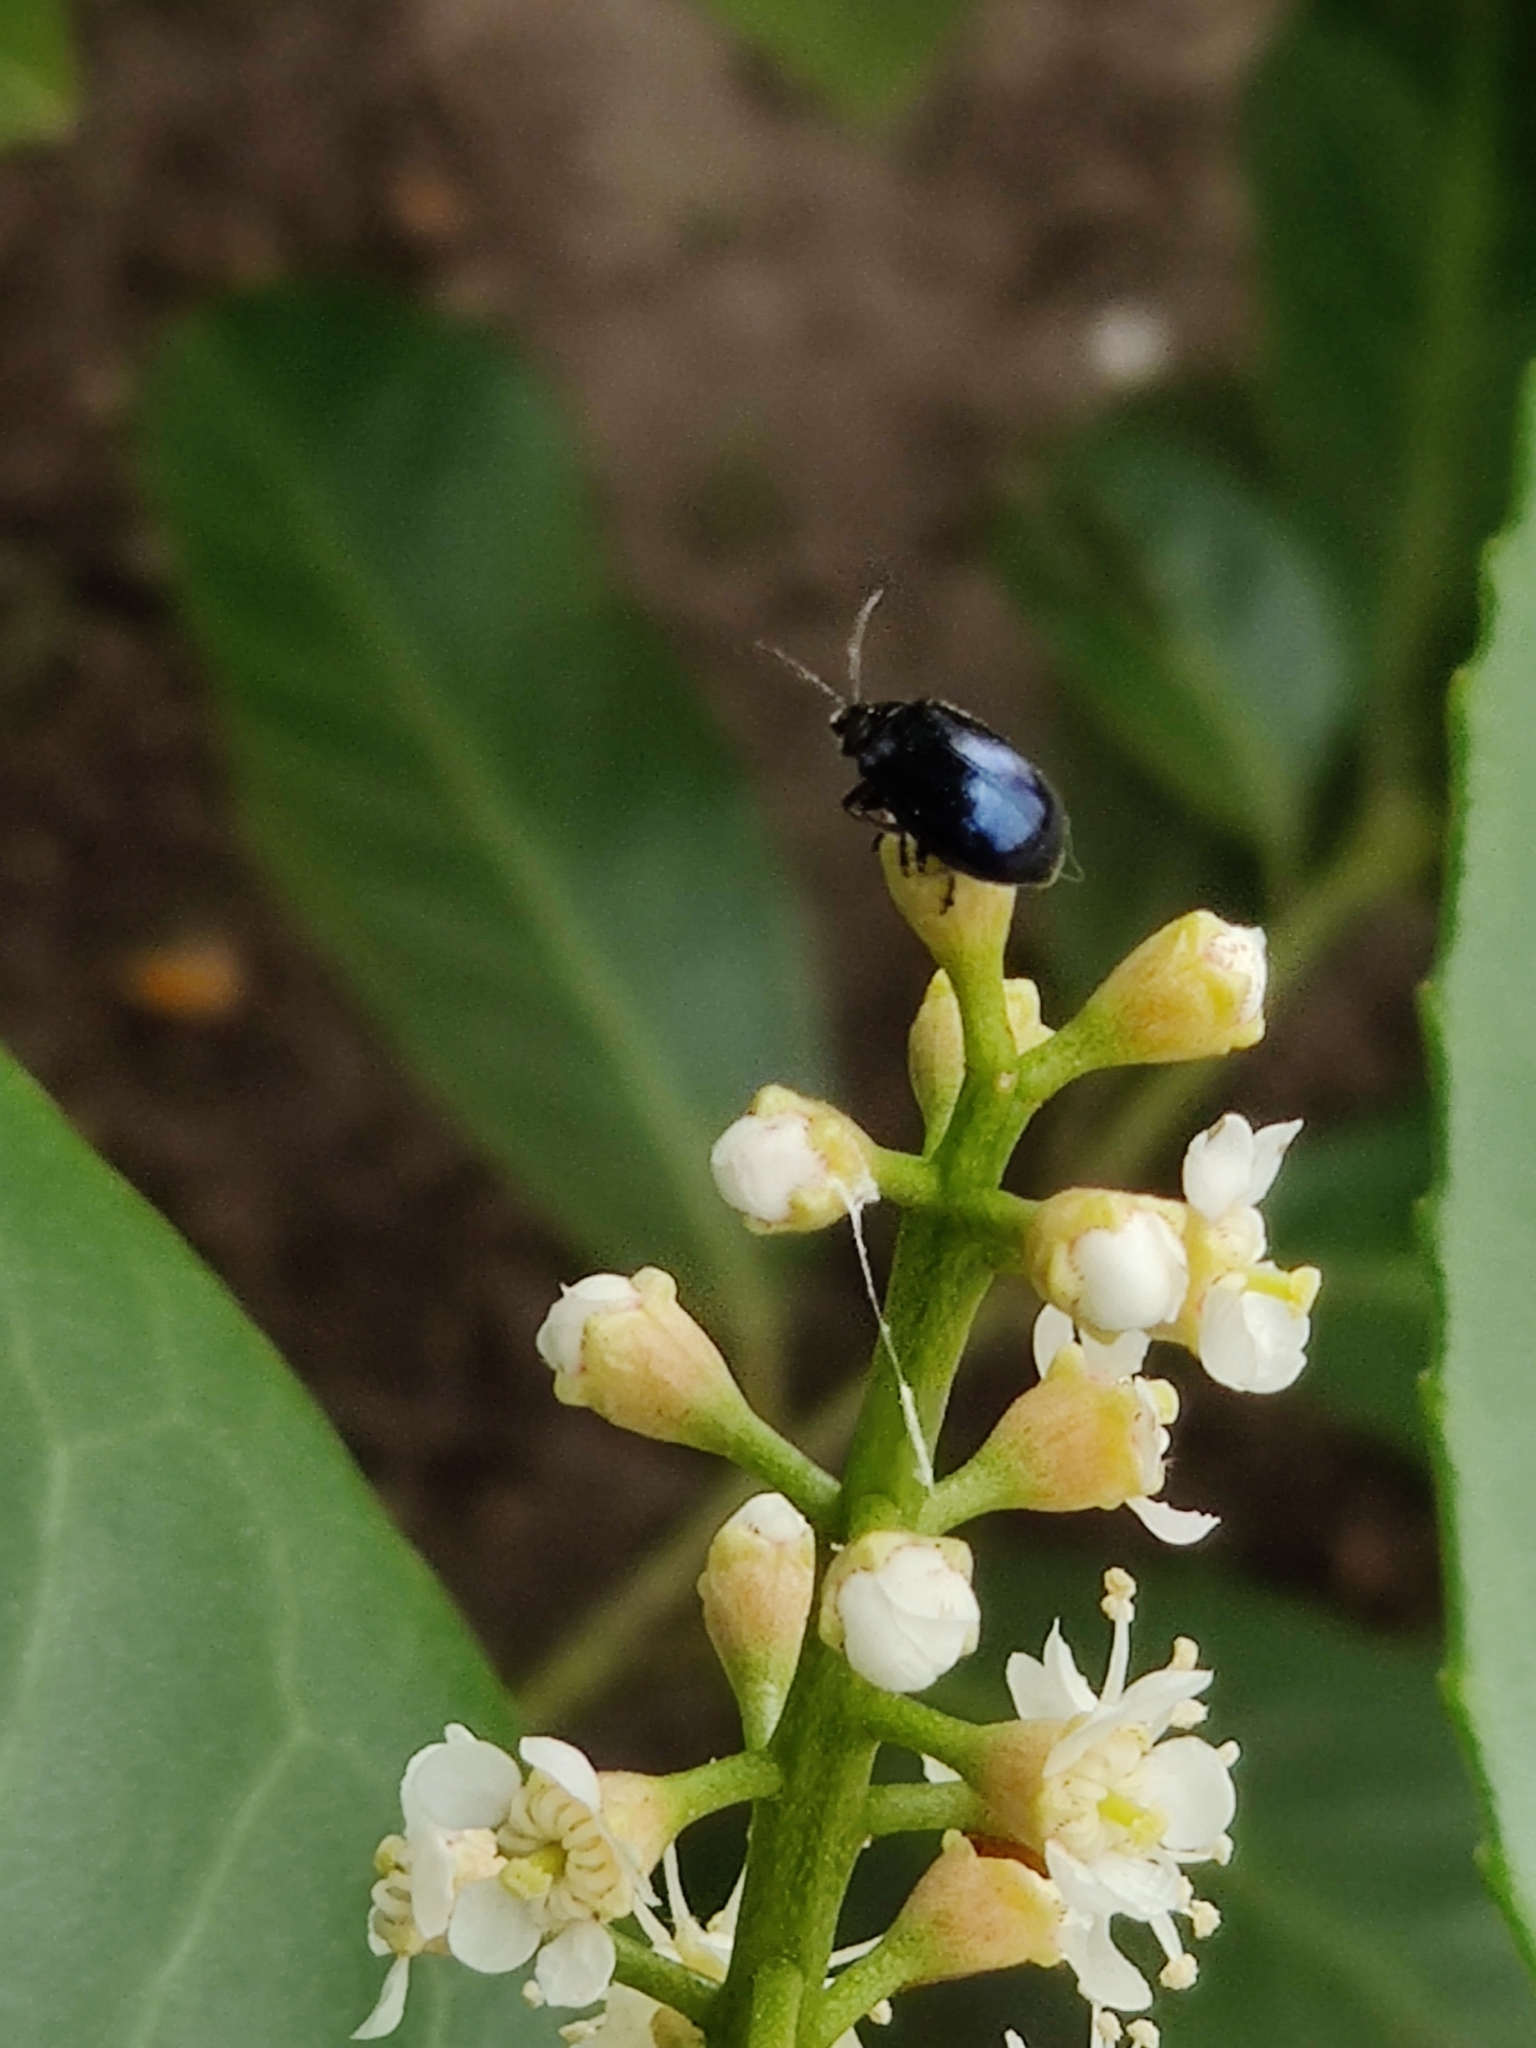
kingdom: Animalia
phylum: Arthropoda
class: Insecta
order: Coleoptera
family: Chrysomelidae
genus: Agelastica
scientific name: Agelastica alni
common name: Alder leaf beetle
